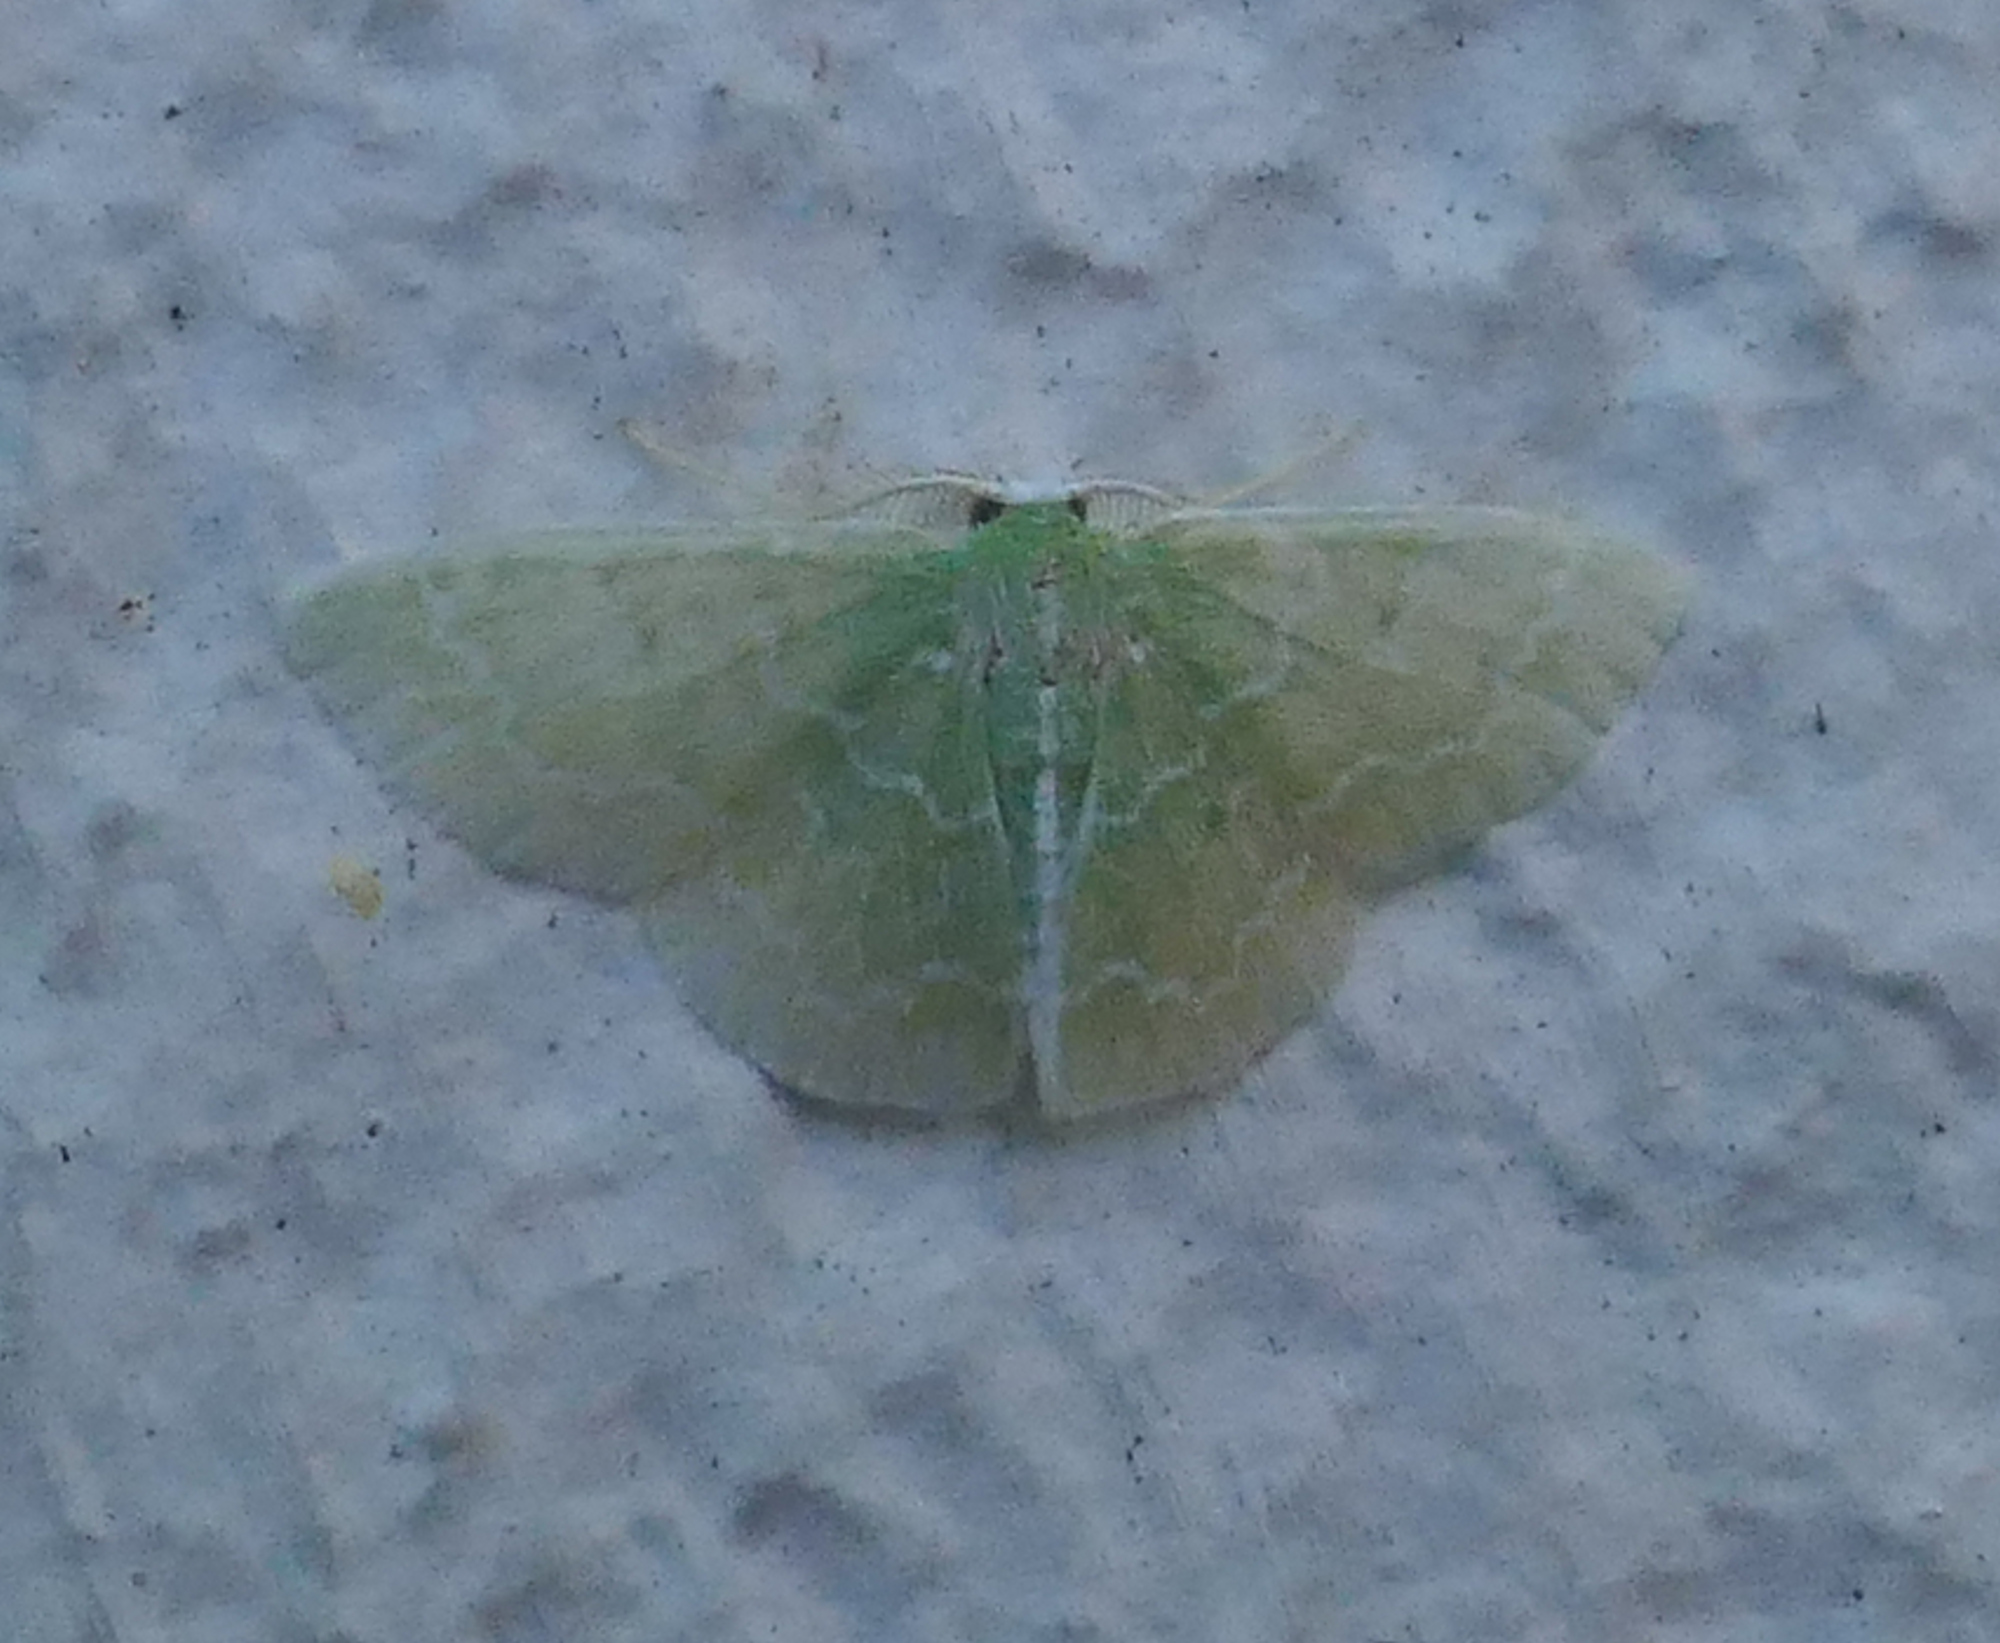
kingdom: Animalia
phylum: Arthropoda
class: Insecta
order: Lepidoptera
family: Geometridae
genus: Synchlora
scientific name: Synchlora frondaria
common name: Southern emerald
